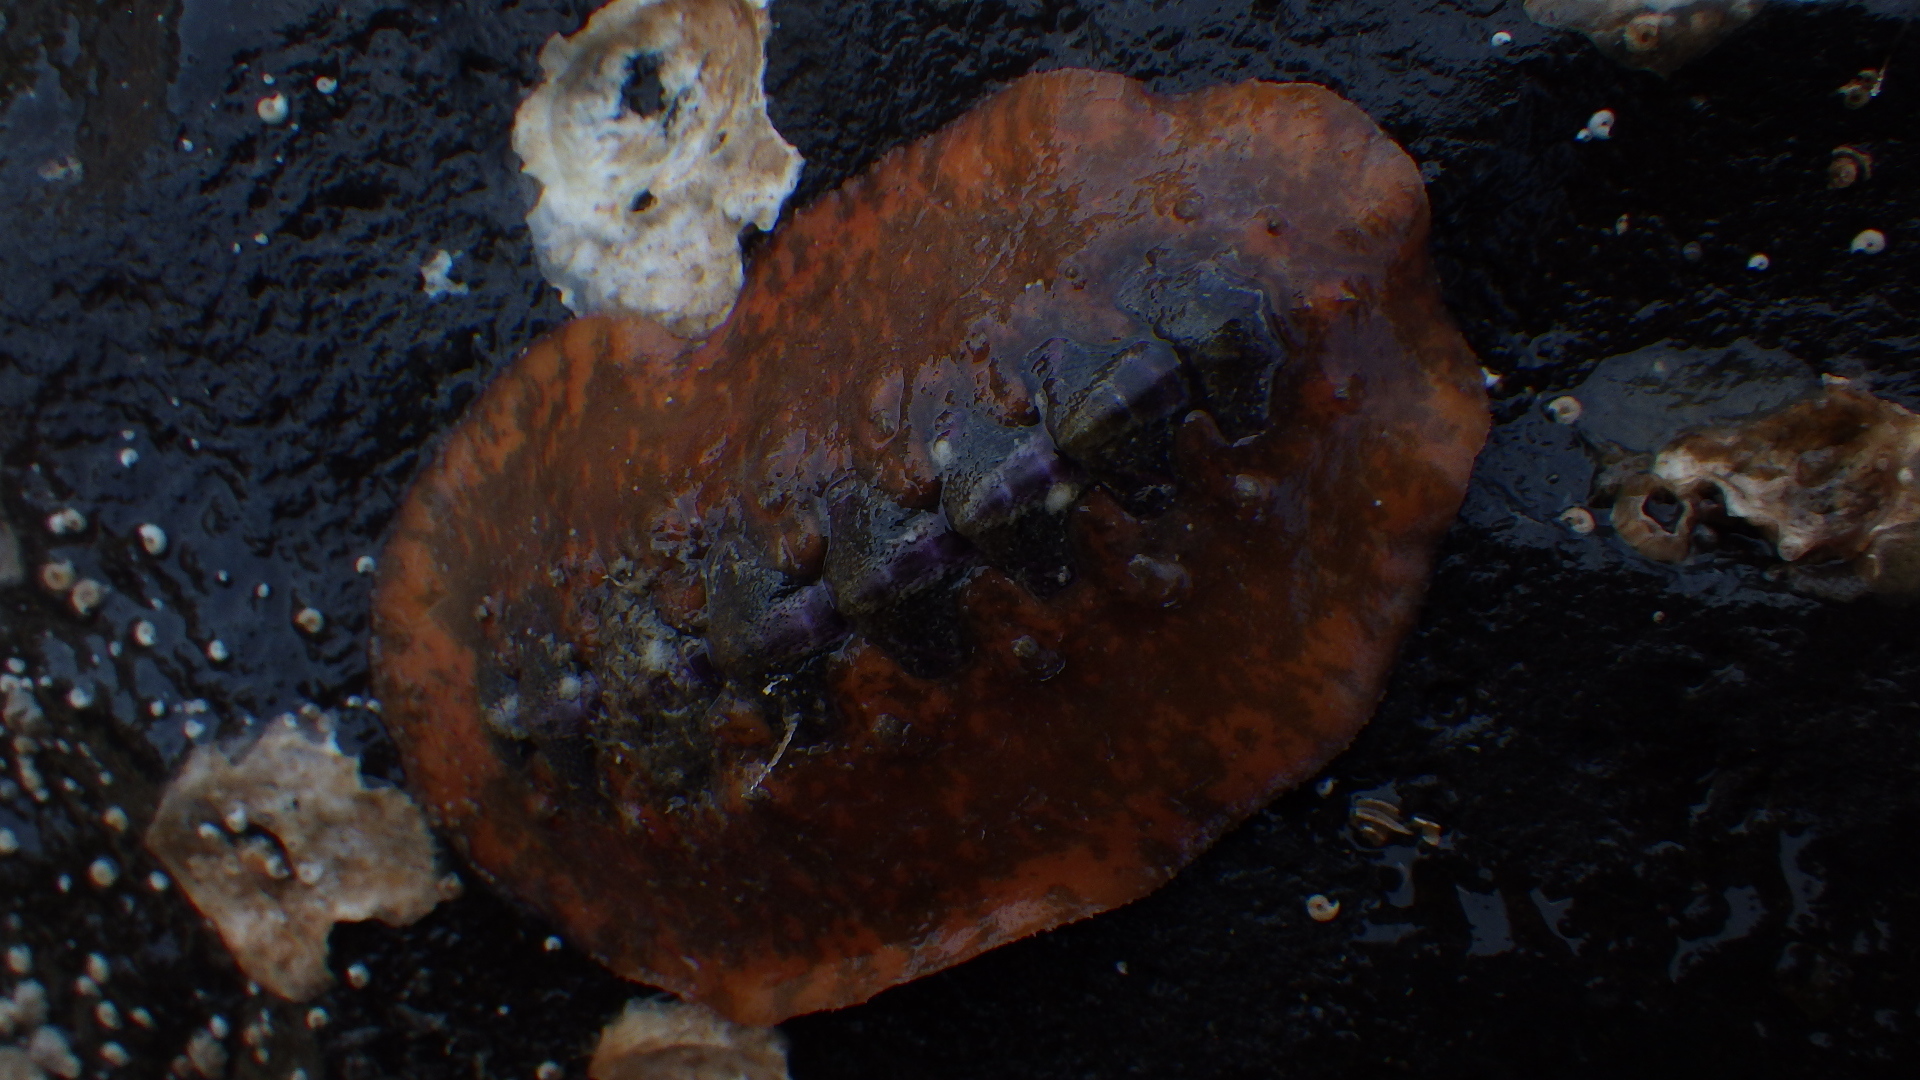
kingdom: Animalia
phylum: Mollusca
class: Polyplacophora
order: Chitonida
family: Acanthochitonidae
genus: Notoplax
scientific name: Notoplax violacea
